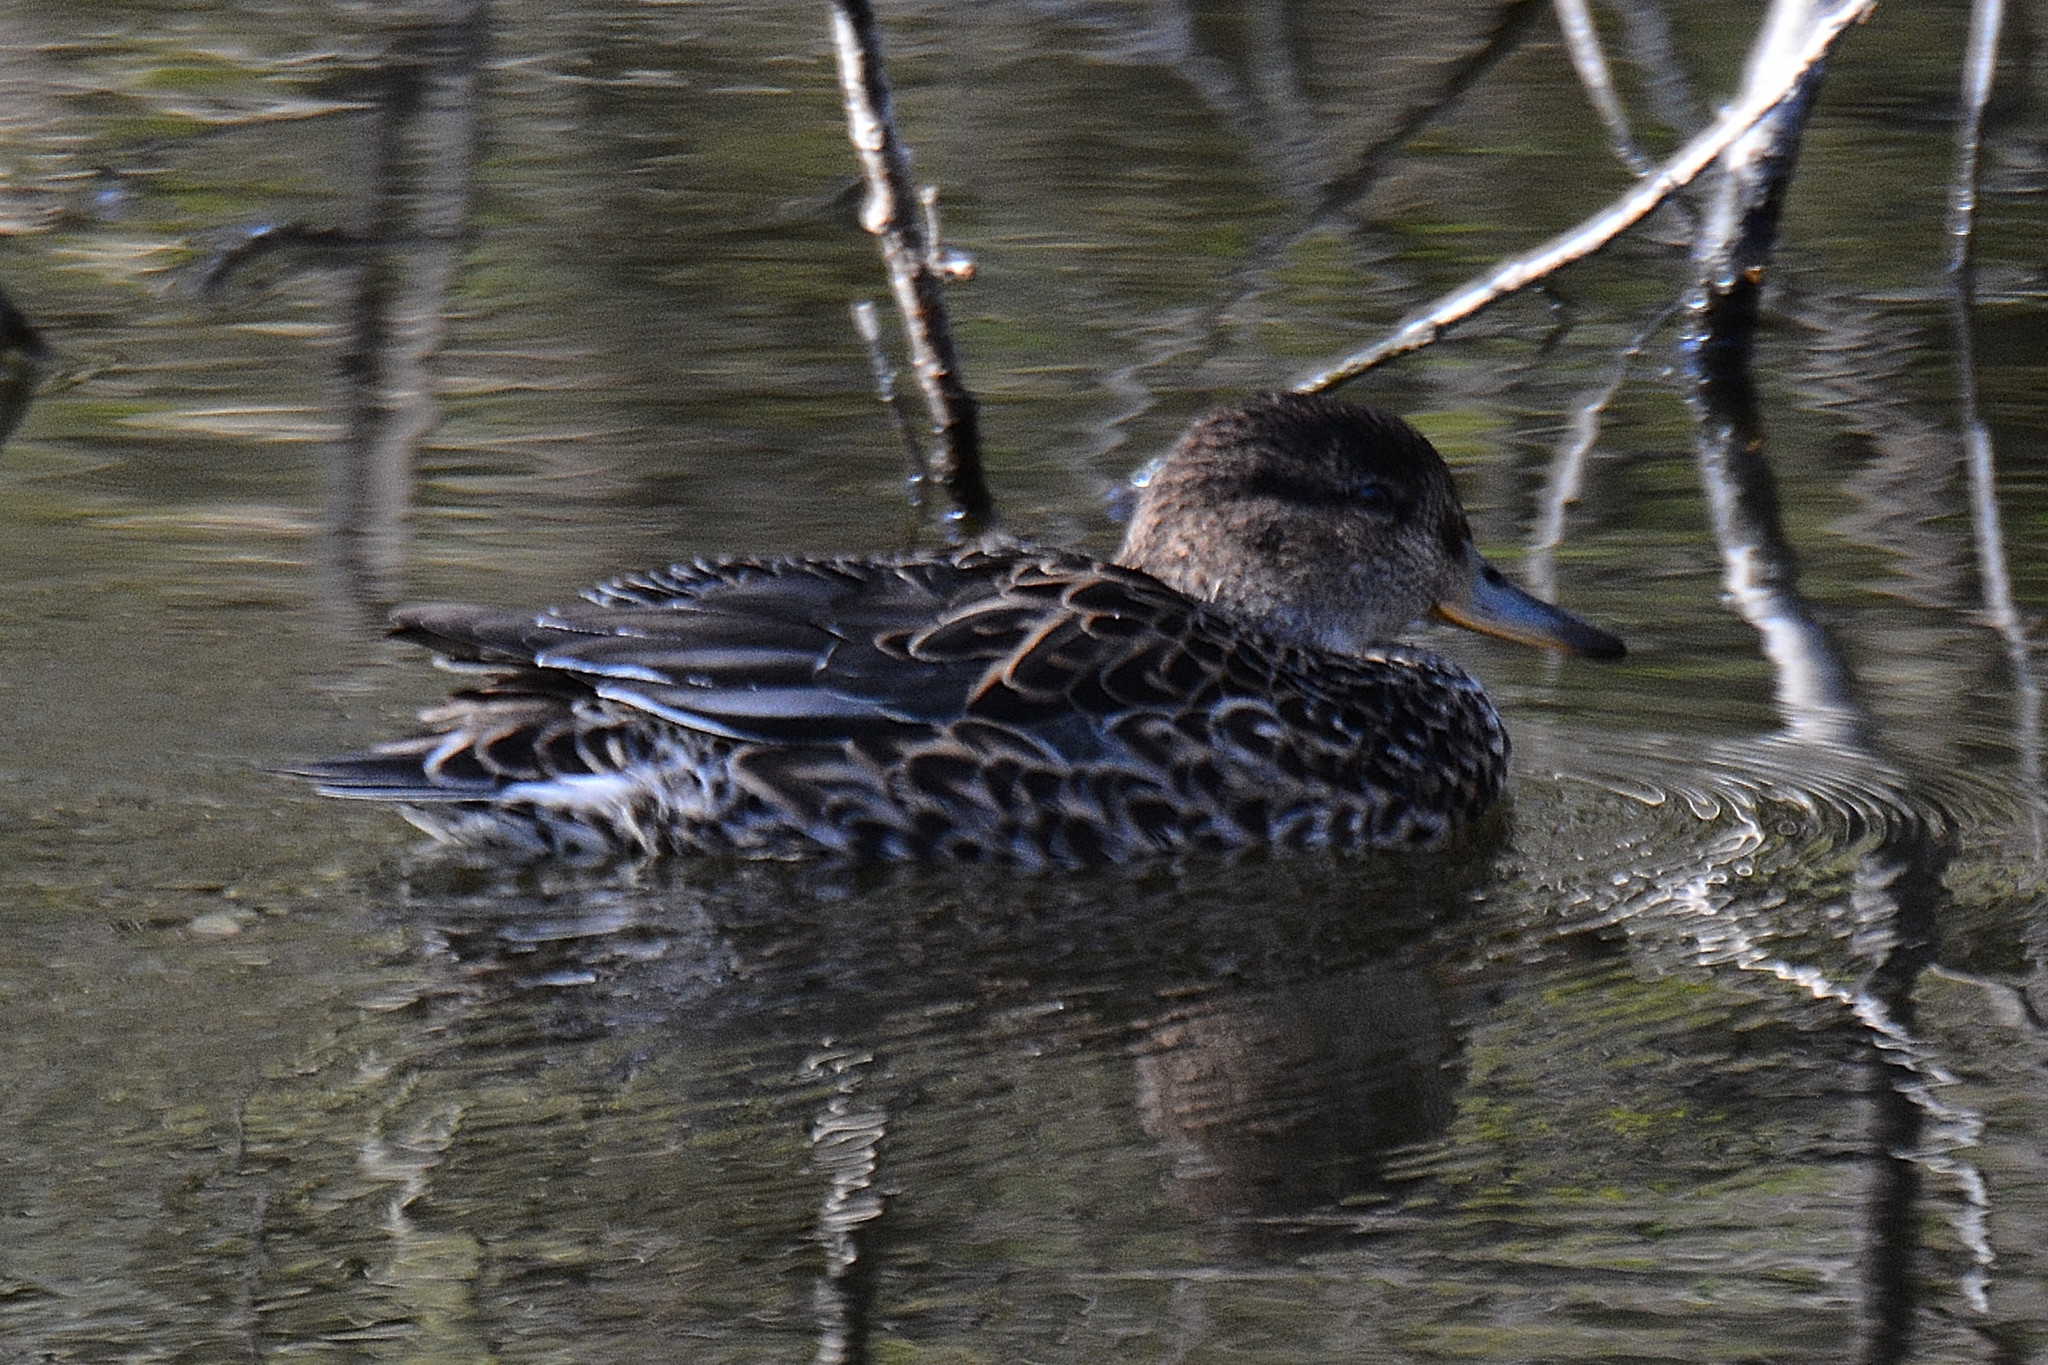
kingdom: Animalia
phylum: Chordata
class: Aves
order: Anseriformes
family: Anatidae
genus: Anas
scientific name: Anas crecca
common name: Eurasian teal
